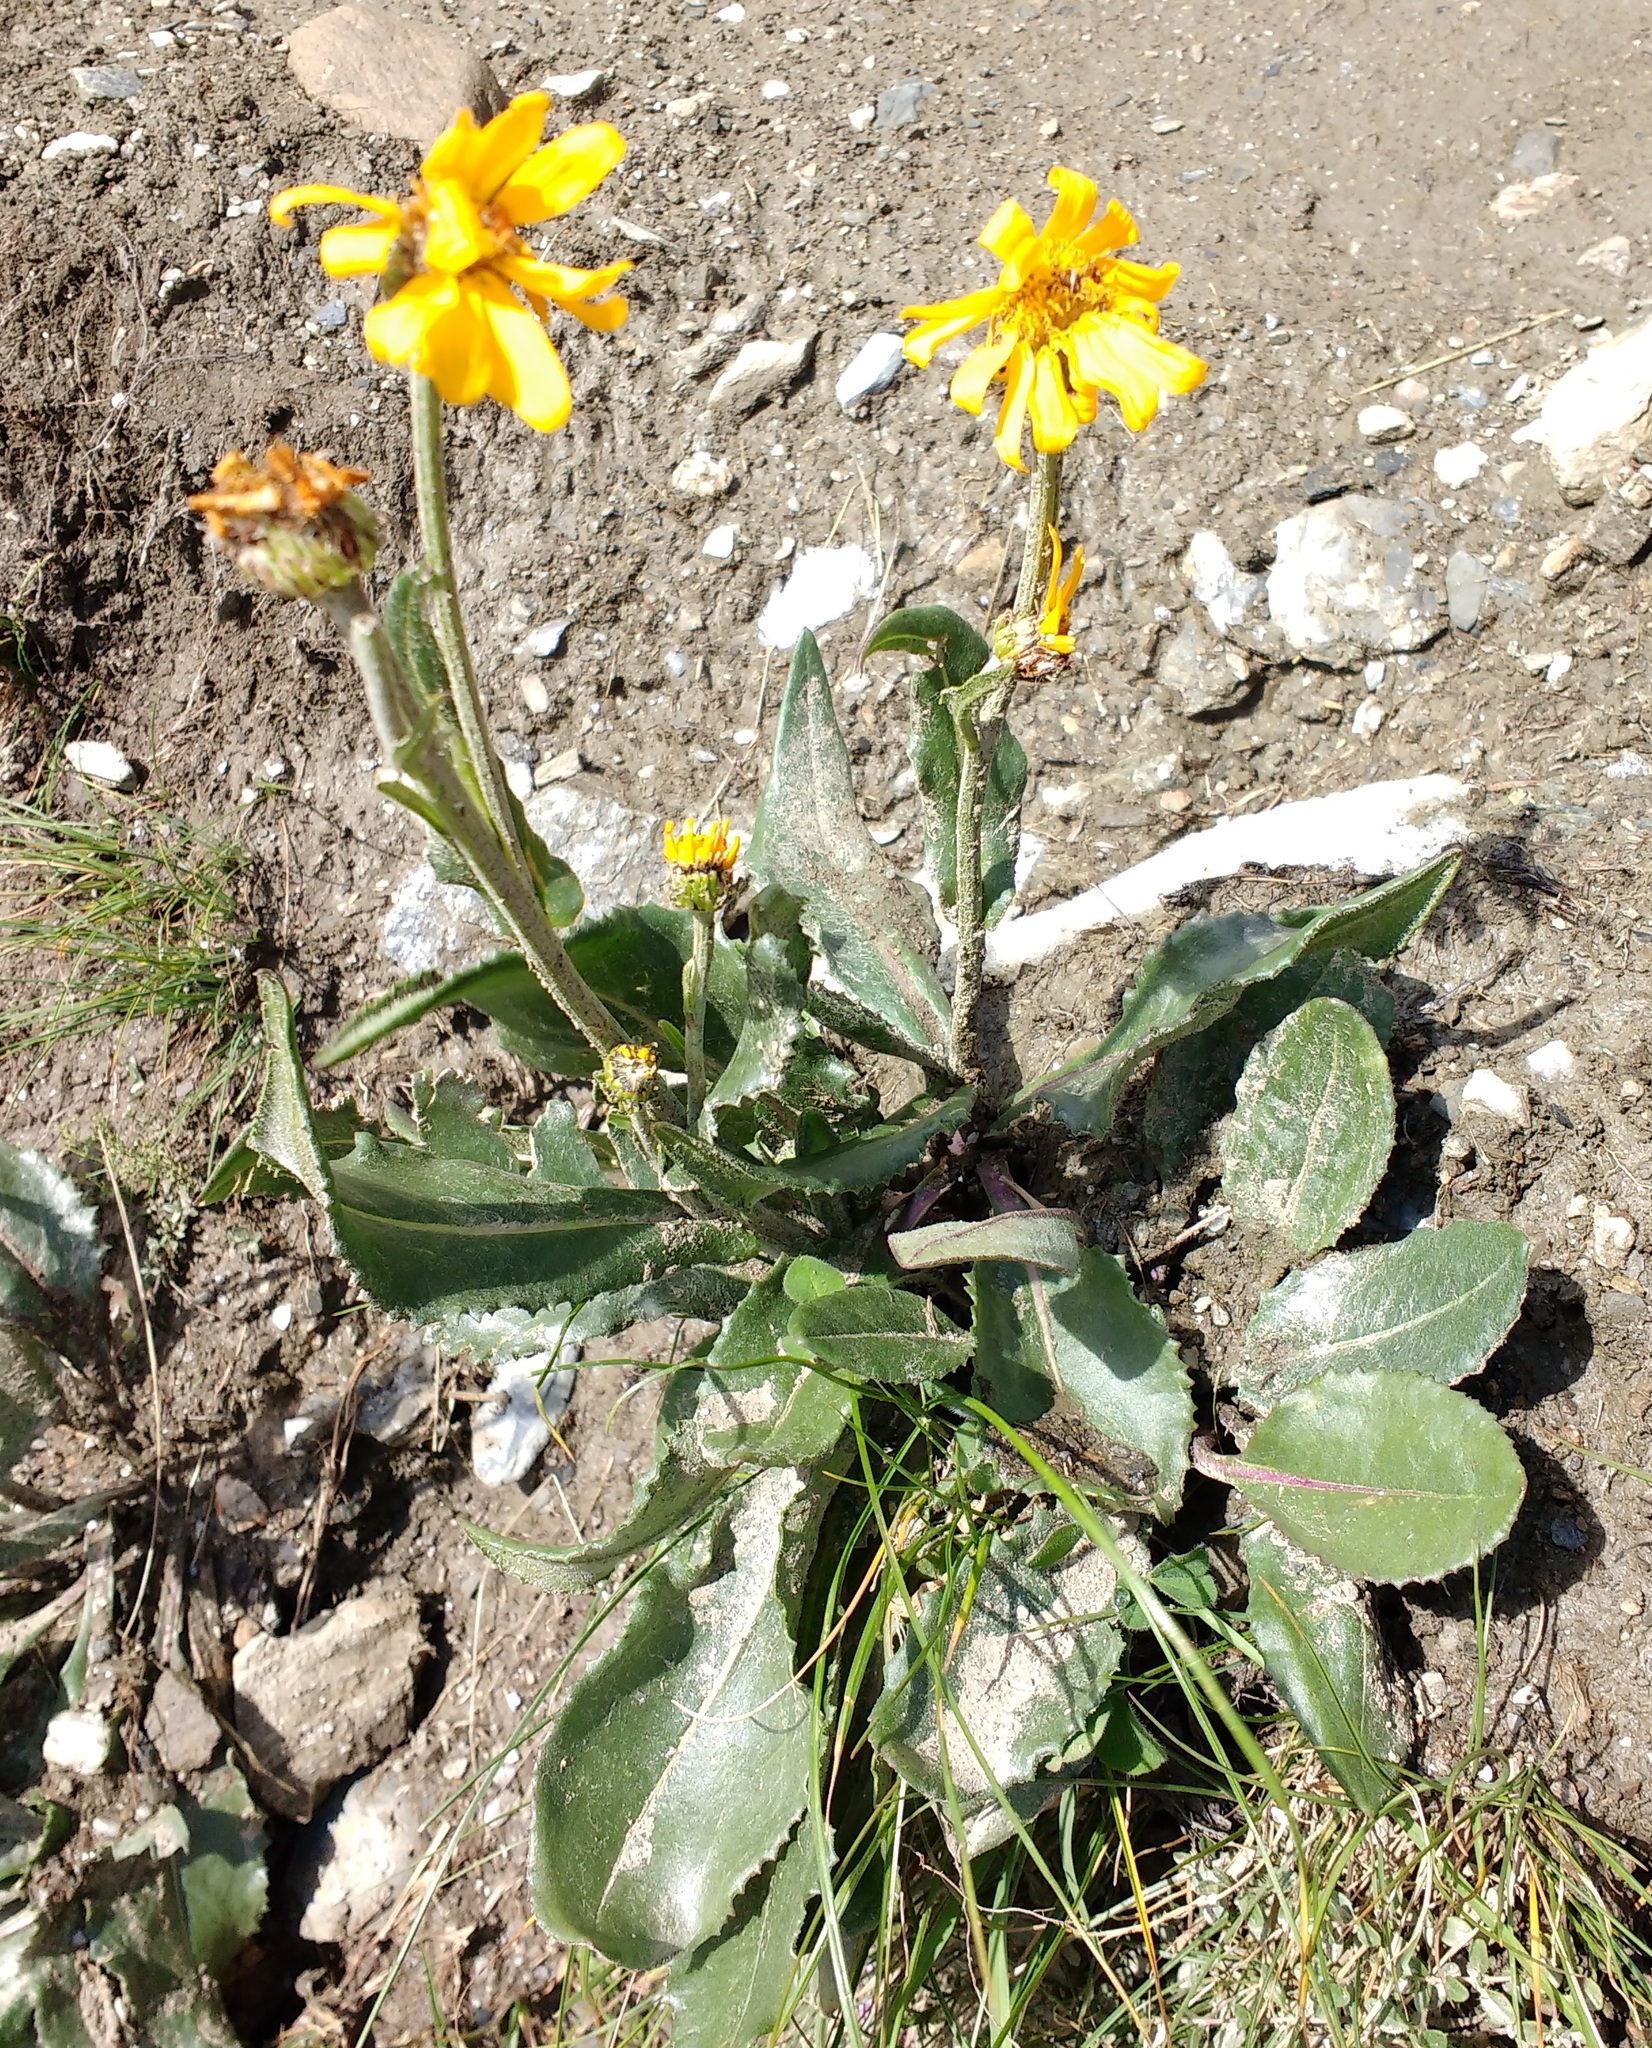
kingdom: Plantae
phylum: Tracheophyta
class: Magnoliopsida
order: Asterales
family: Asteraceae
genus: Senecio
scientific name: Senecio doronicum
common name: Chamois ragwort
